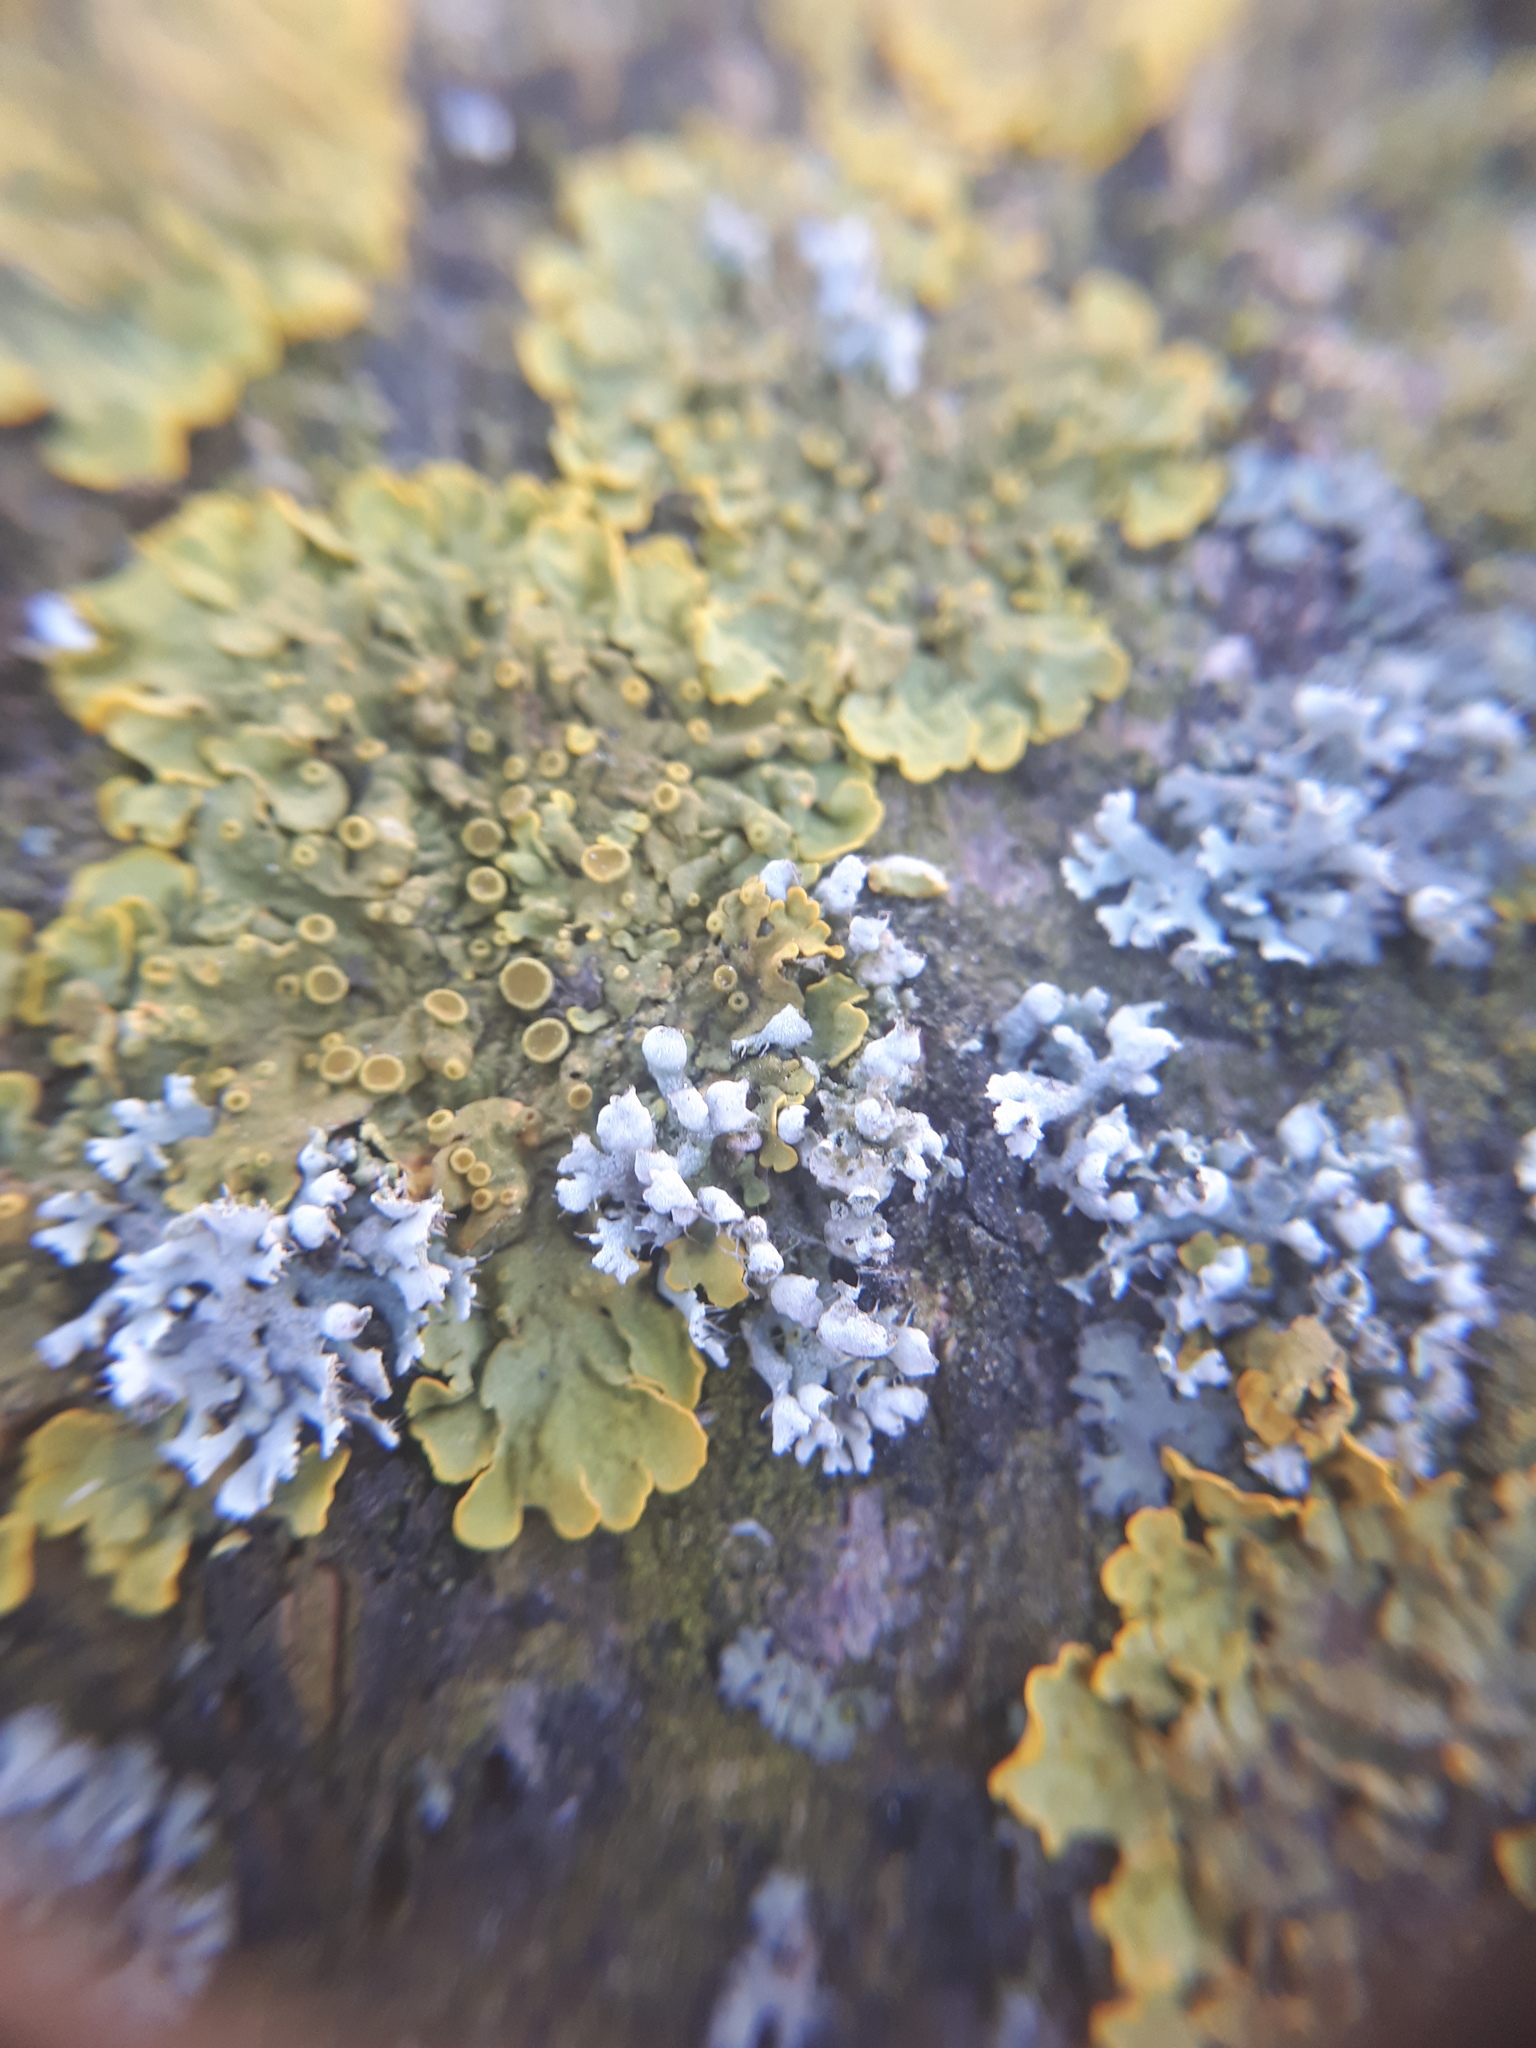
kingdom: Fungi
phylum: Ascomycota
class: Lecanoromycetes
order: Caliciales
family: Physciaceae
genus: Physcia
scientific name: Physcia adscendens
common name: Hooded rosette lichen
